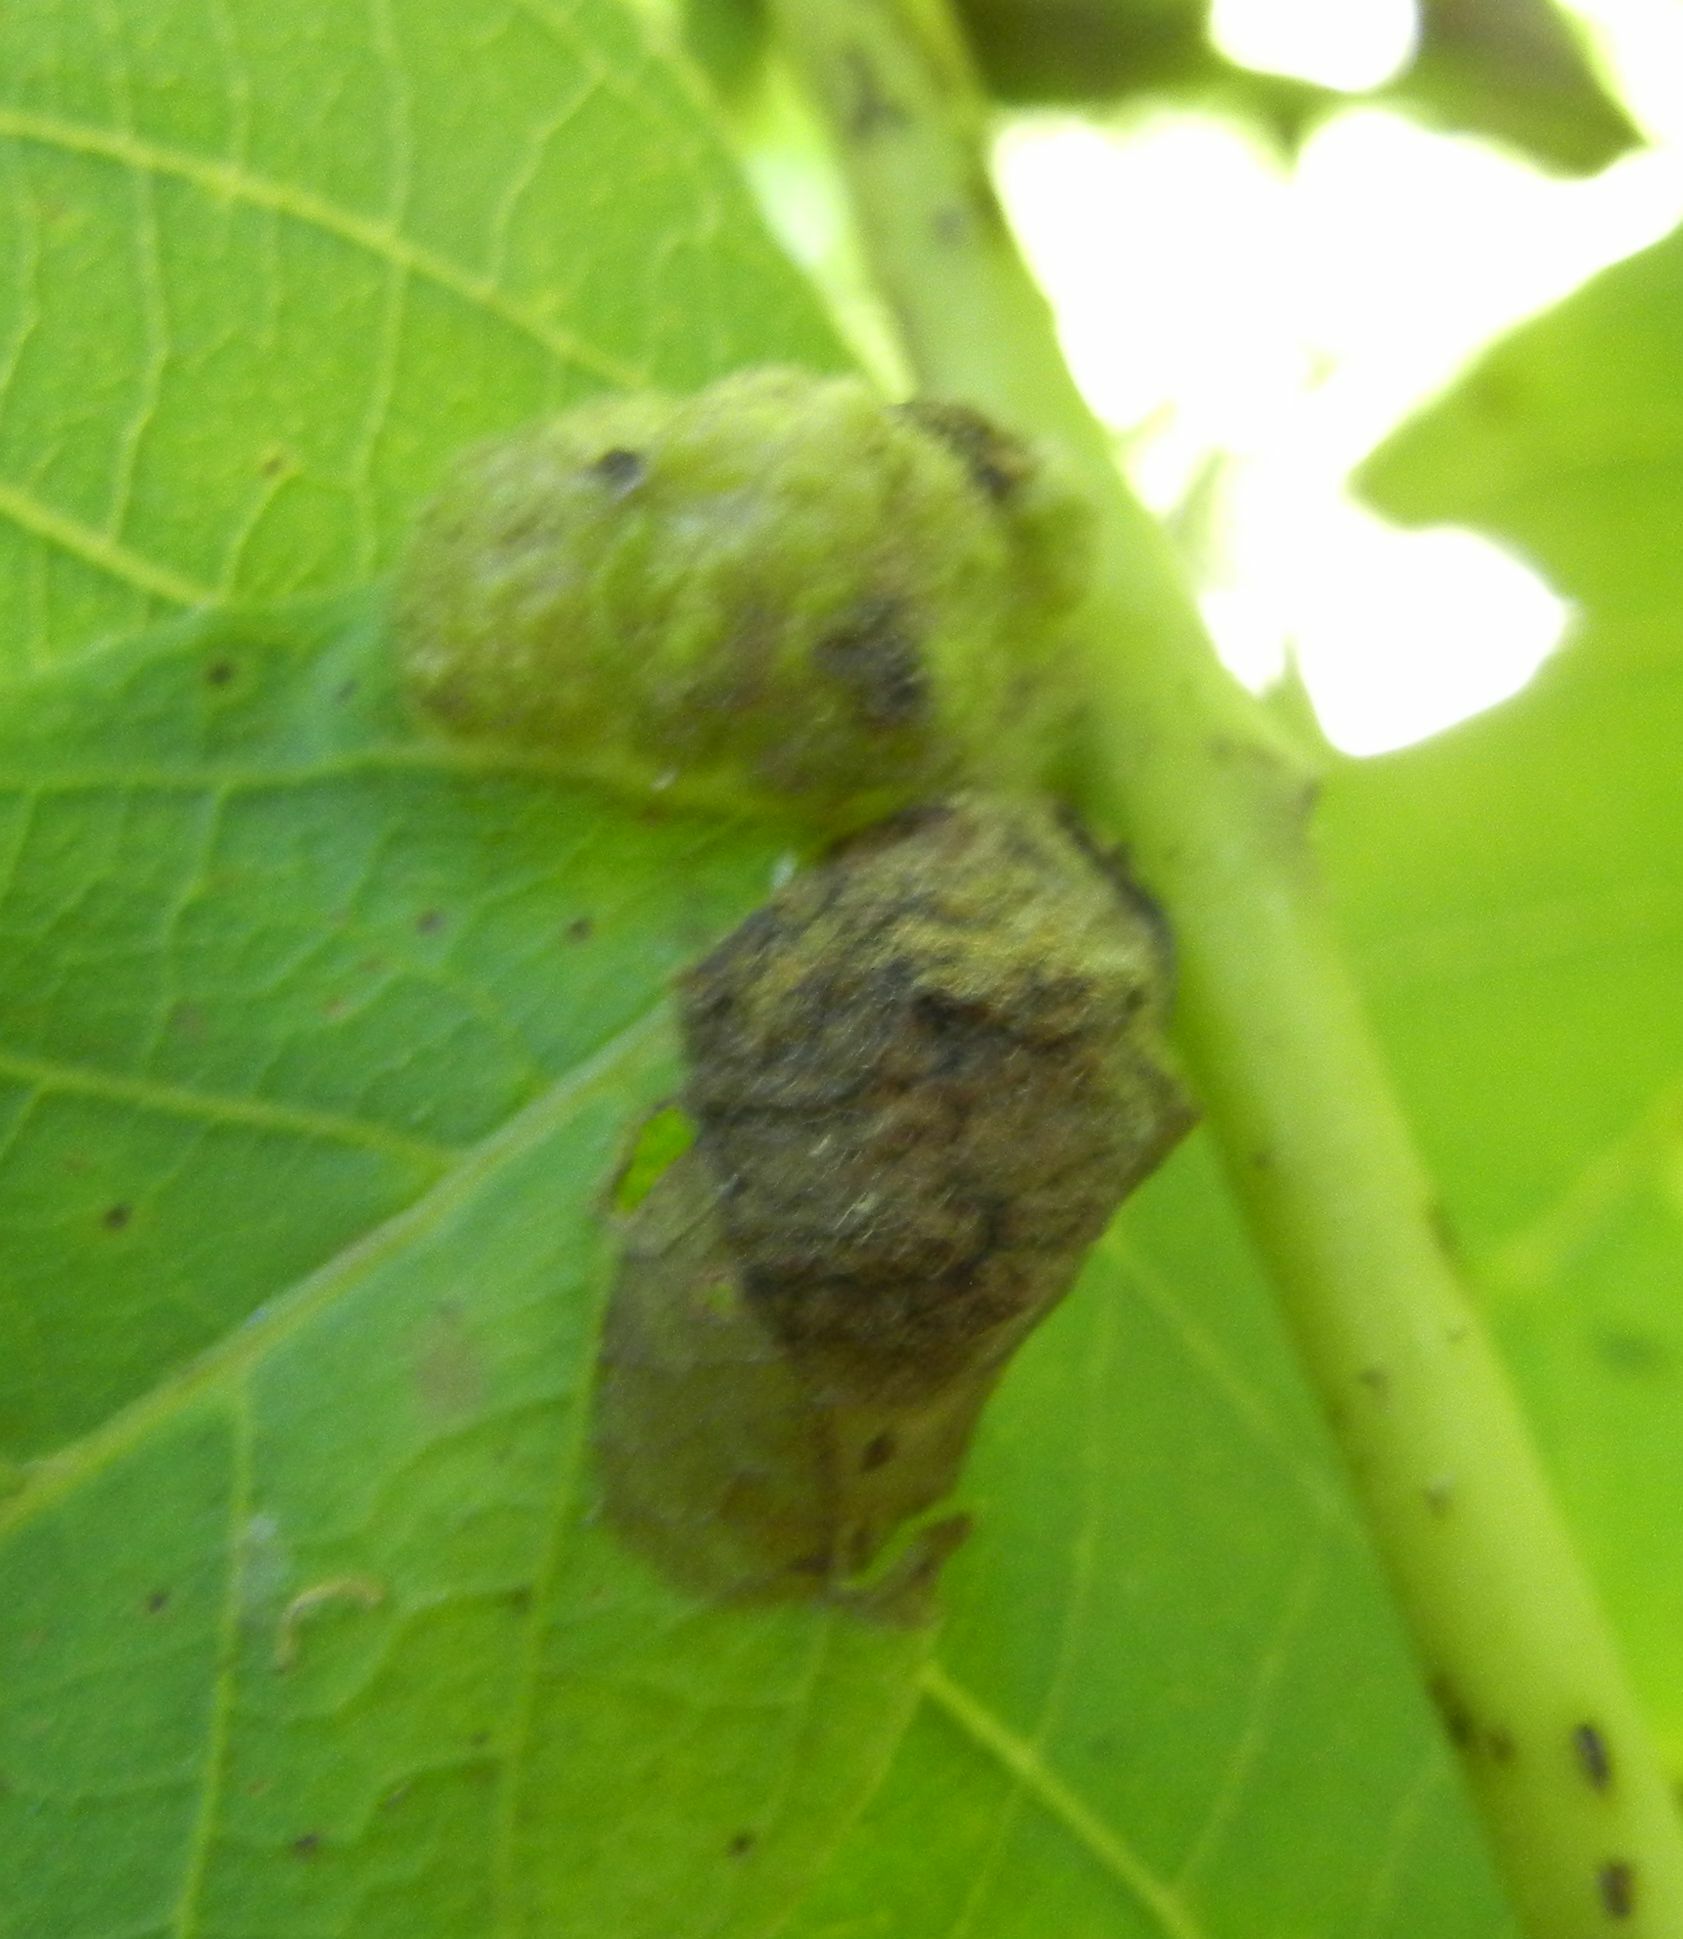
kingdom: Animalia
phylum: Arthropoda
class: Arachnida
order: Trombidiformes
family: Eriophyidae
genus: Aceria
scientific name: Aceria erinea
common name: Persian walnut erineum mite
